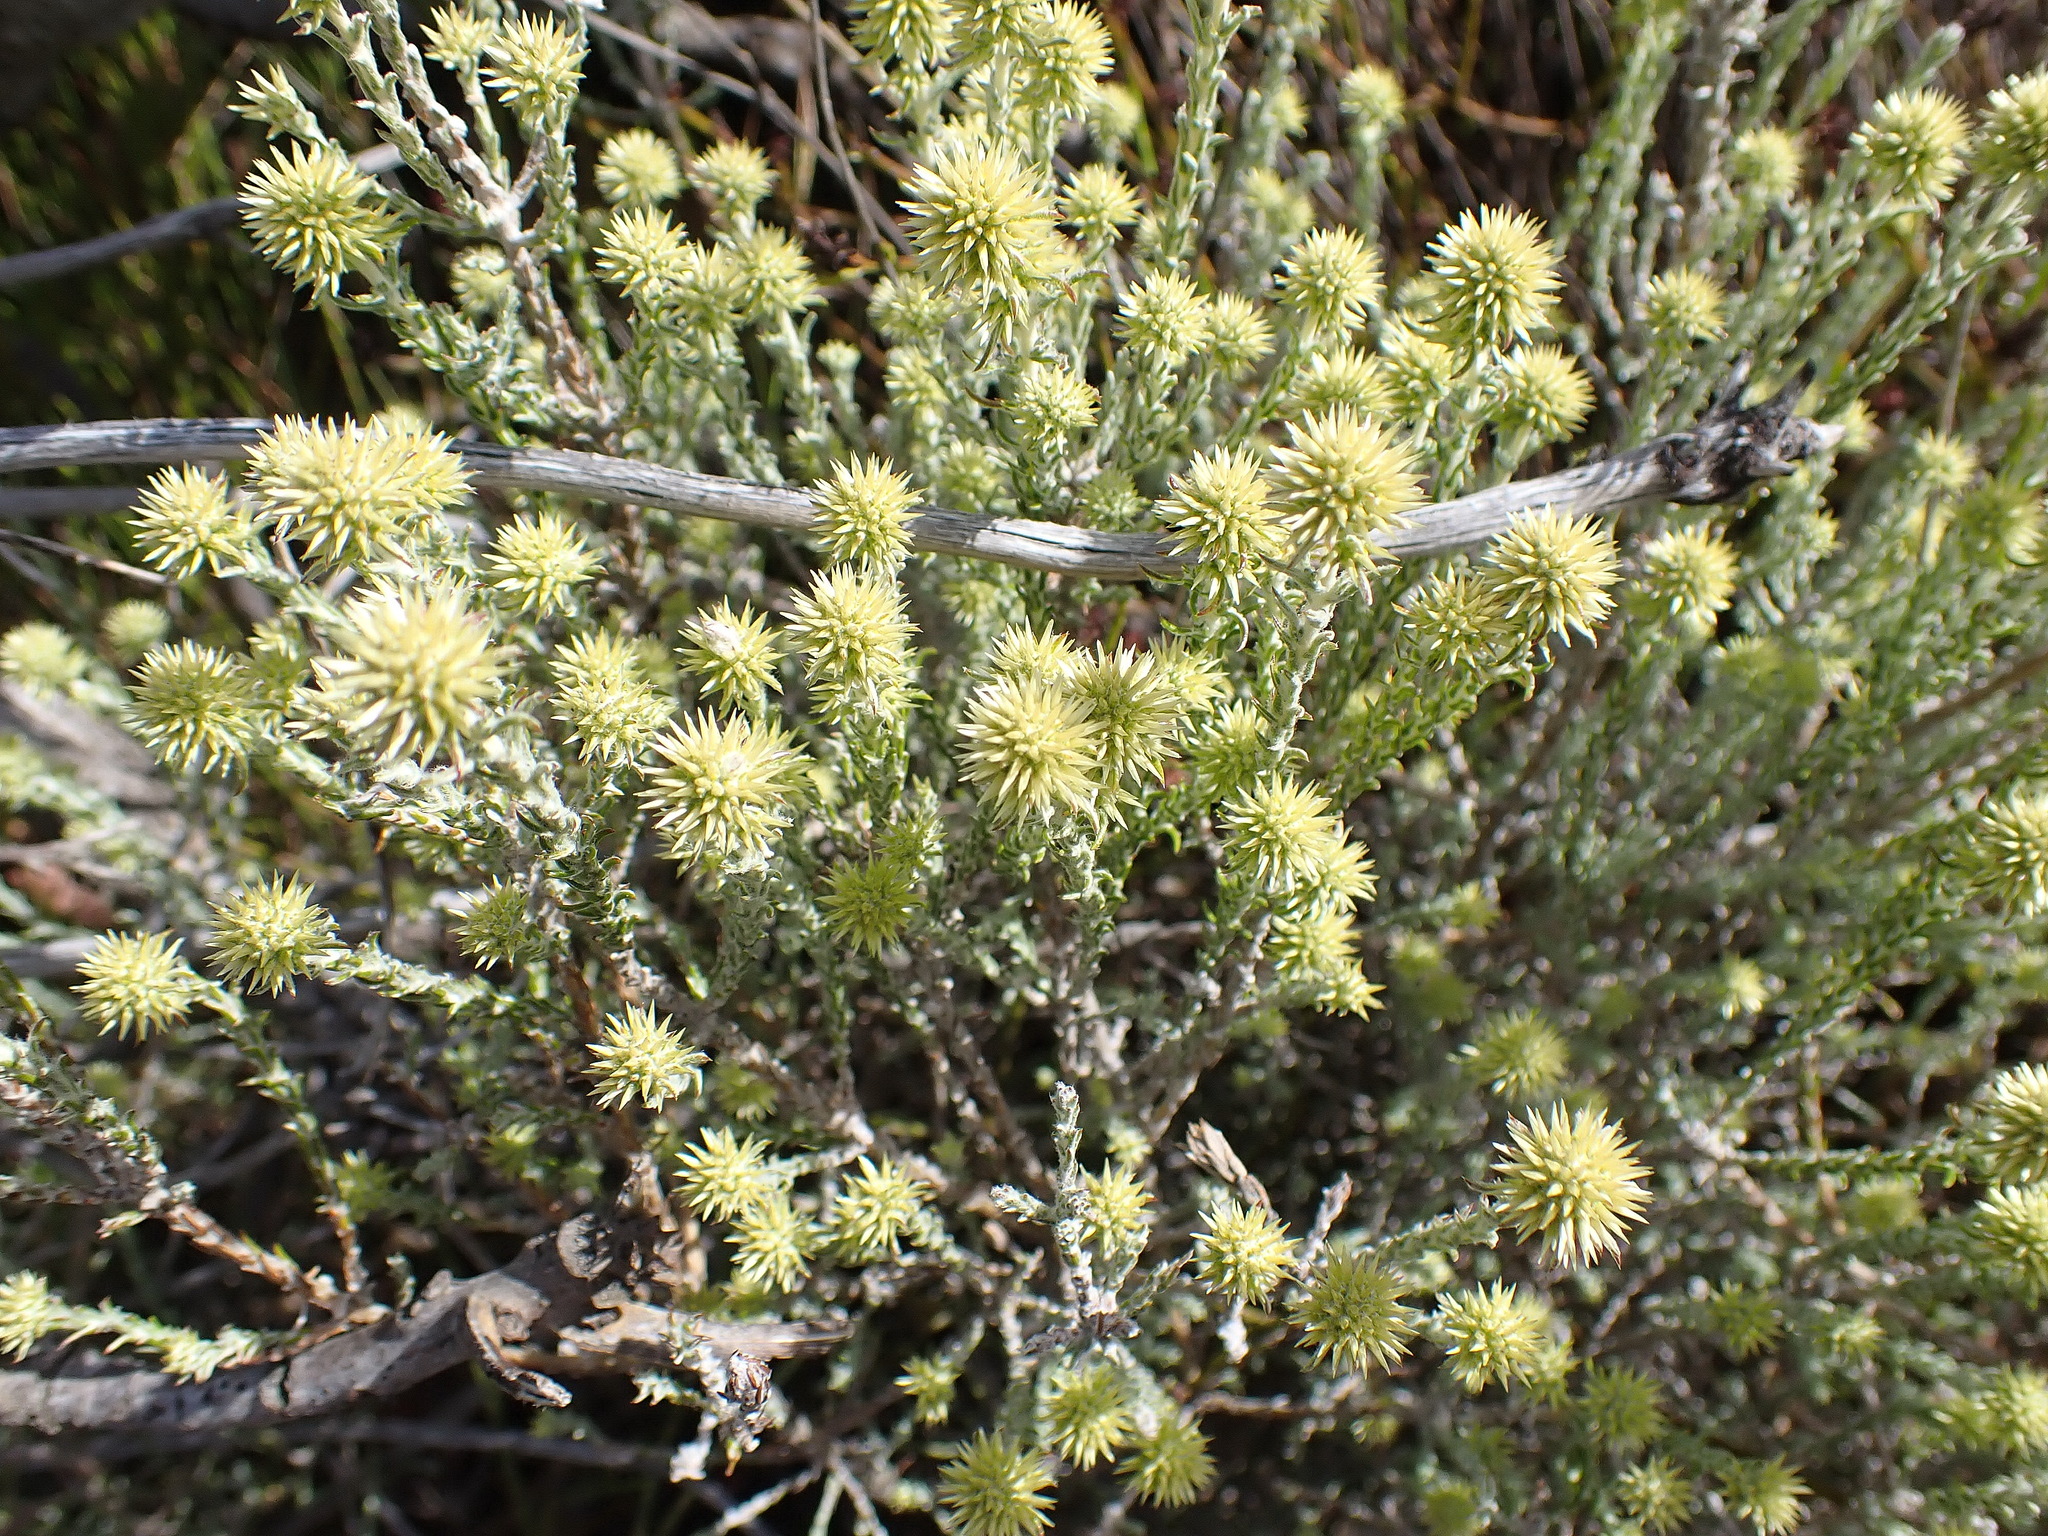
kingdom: Plantae
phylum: Tracheophyta
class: Magnoliopsida
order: Asterales
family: Asteraceae
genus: Seriphium
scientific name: Seriphium spirale
